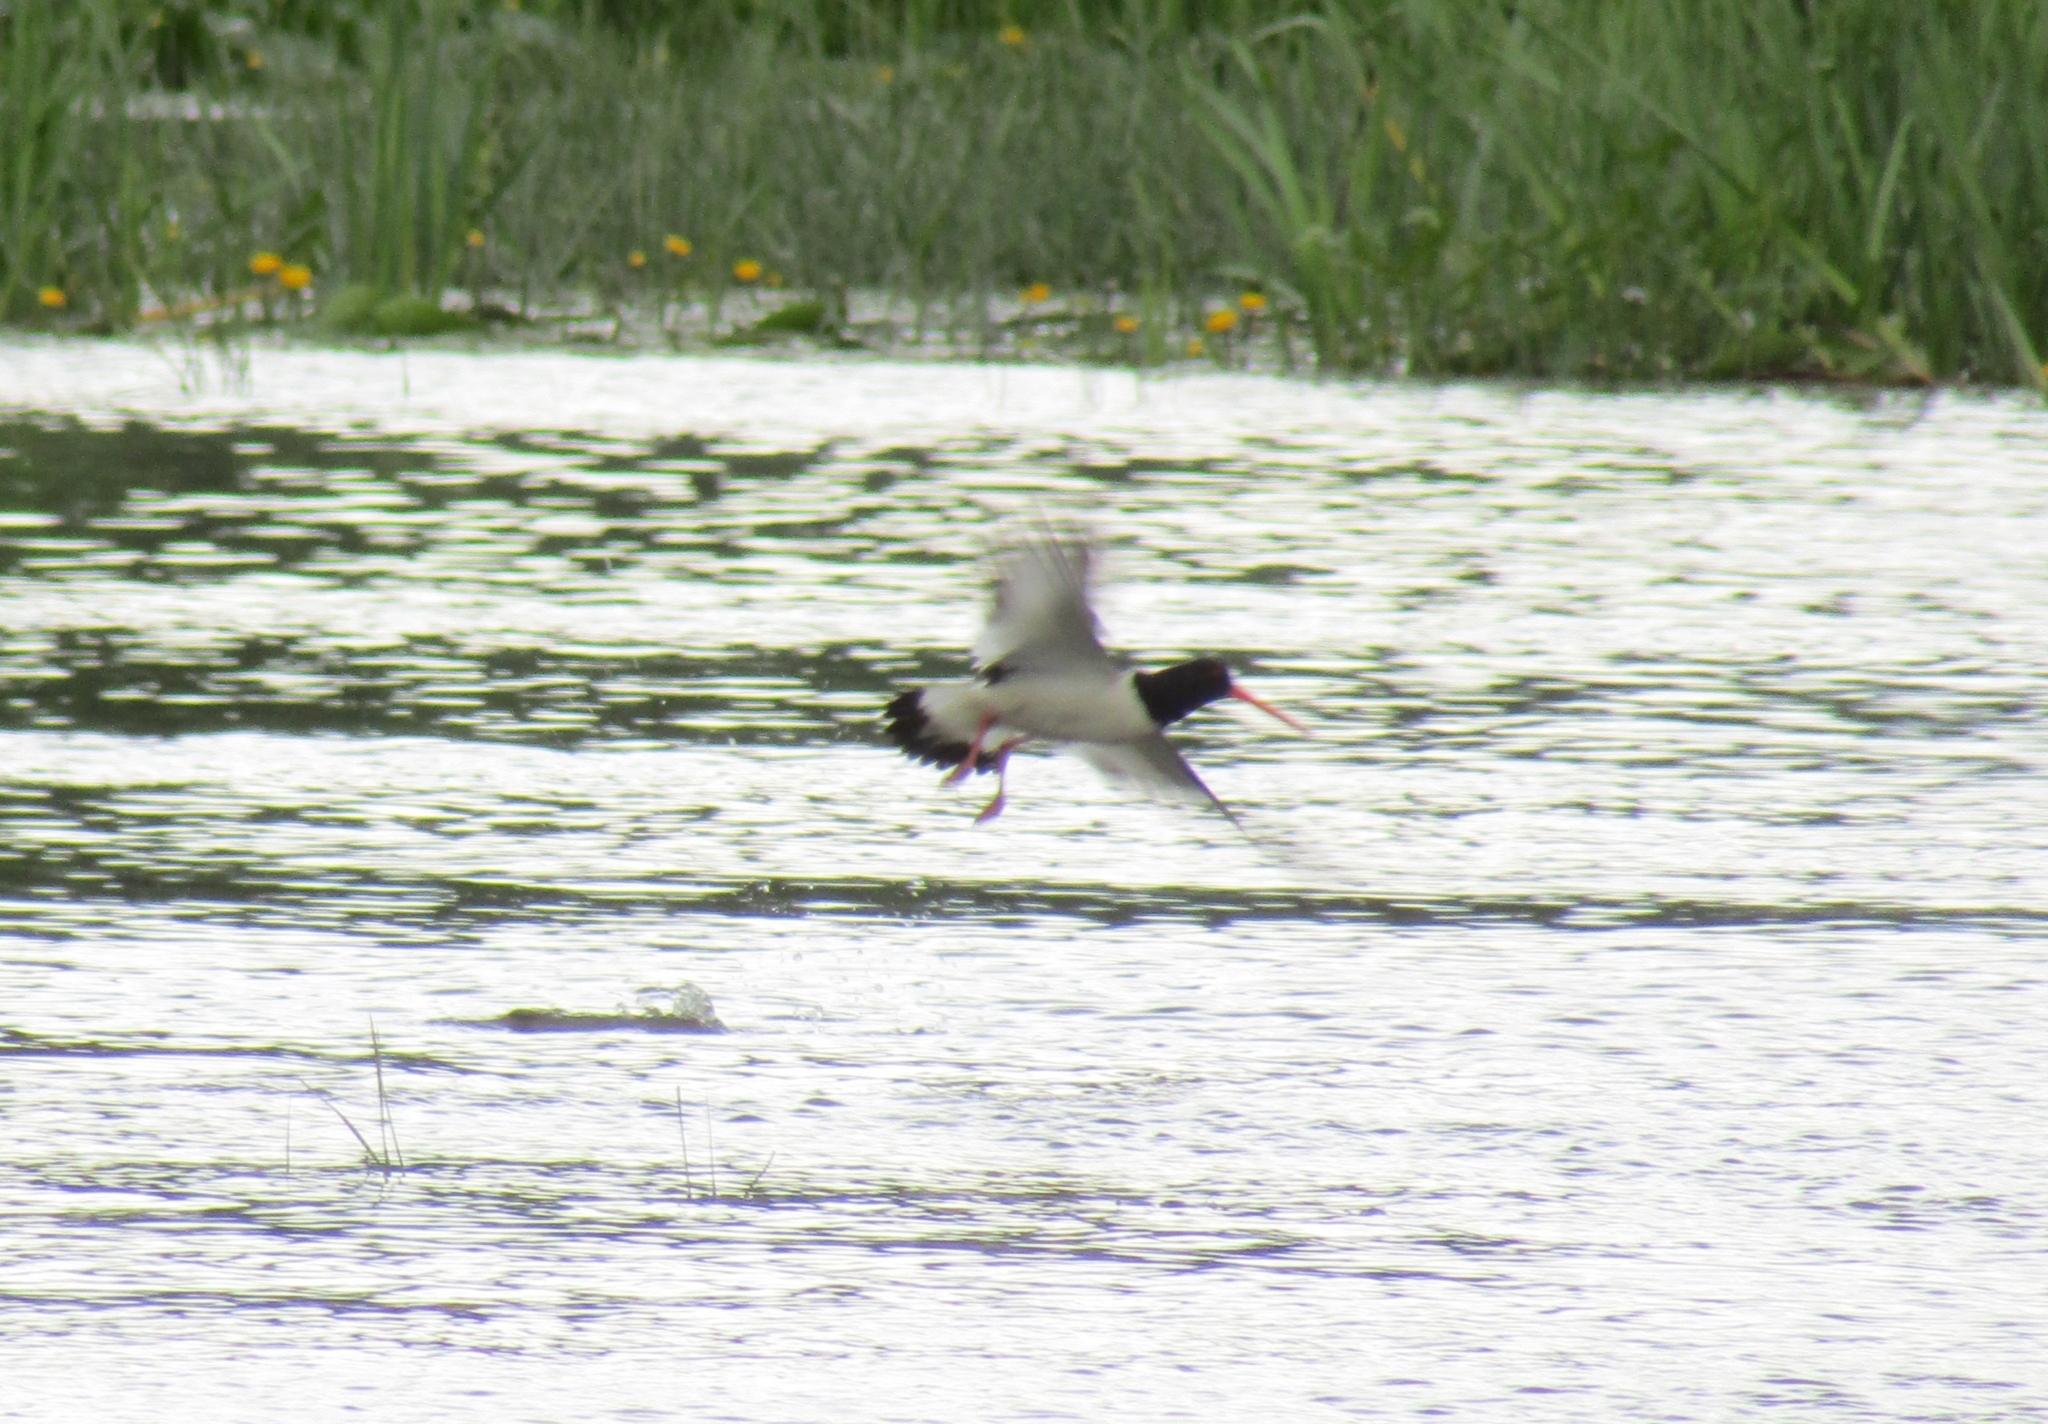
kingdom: Animalia
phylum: Chordata
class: Aves
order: Charadriiformes
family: Haematopodidae
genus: Haematopus
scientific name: Haematopus ostralegus
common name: Eurasian oystercatcher
